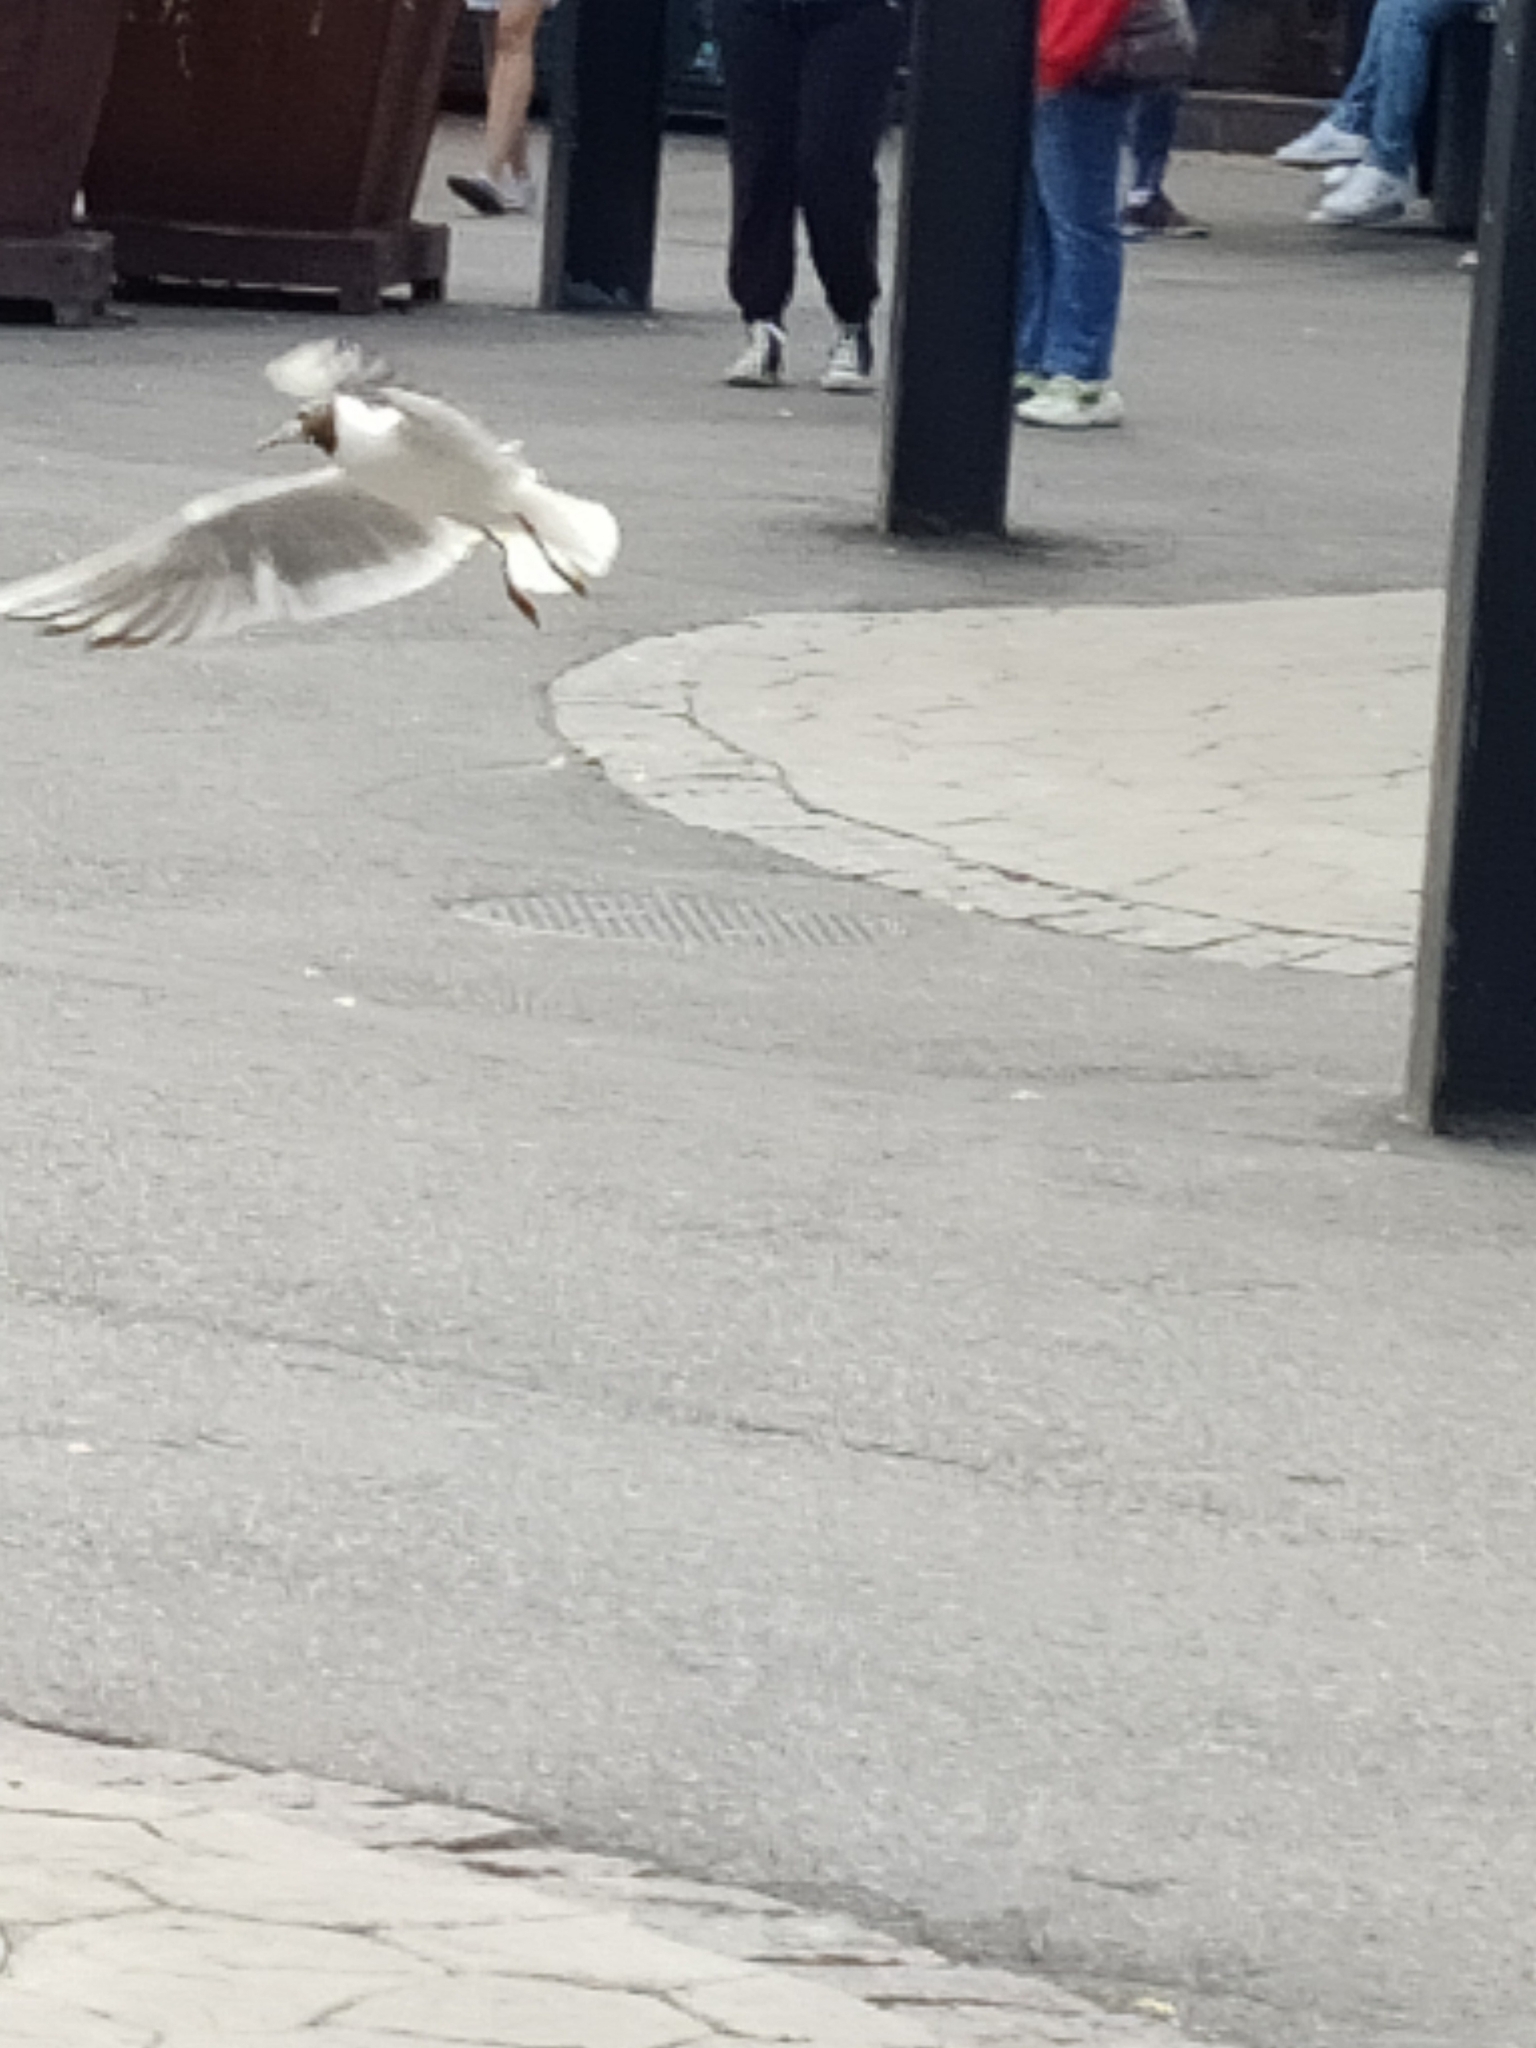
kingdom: Animalia
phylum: Chordata
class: Aves
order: Charadriiformes
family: Laridae
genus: Chroicocephalus
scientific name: Chroicocephalus ridibundus
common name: Black-headed gull
